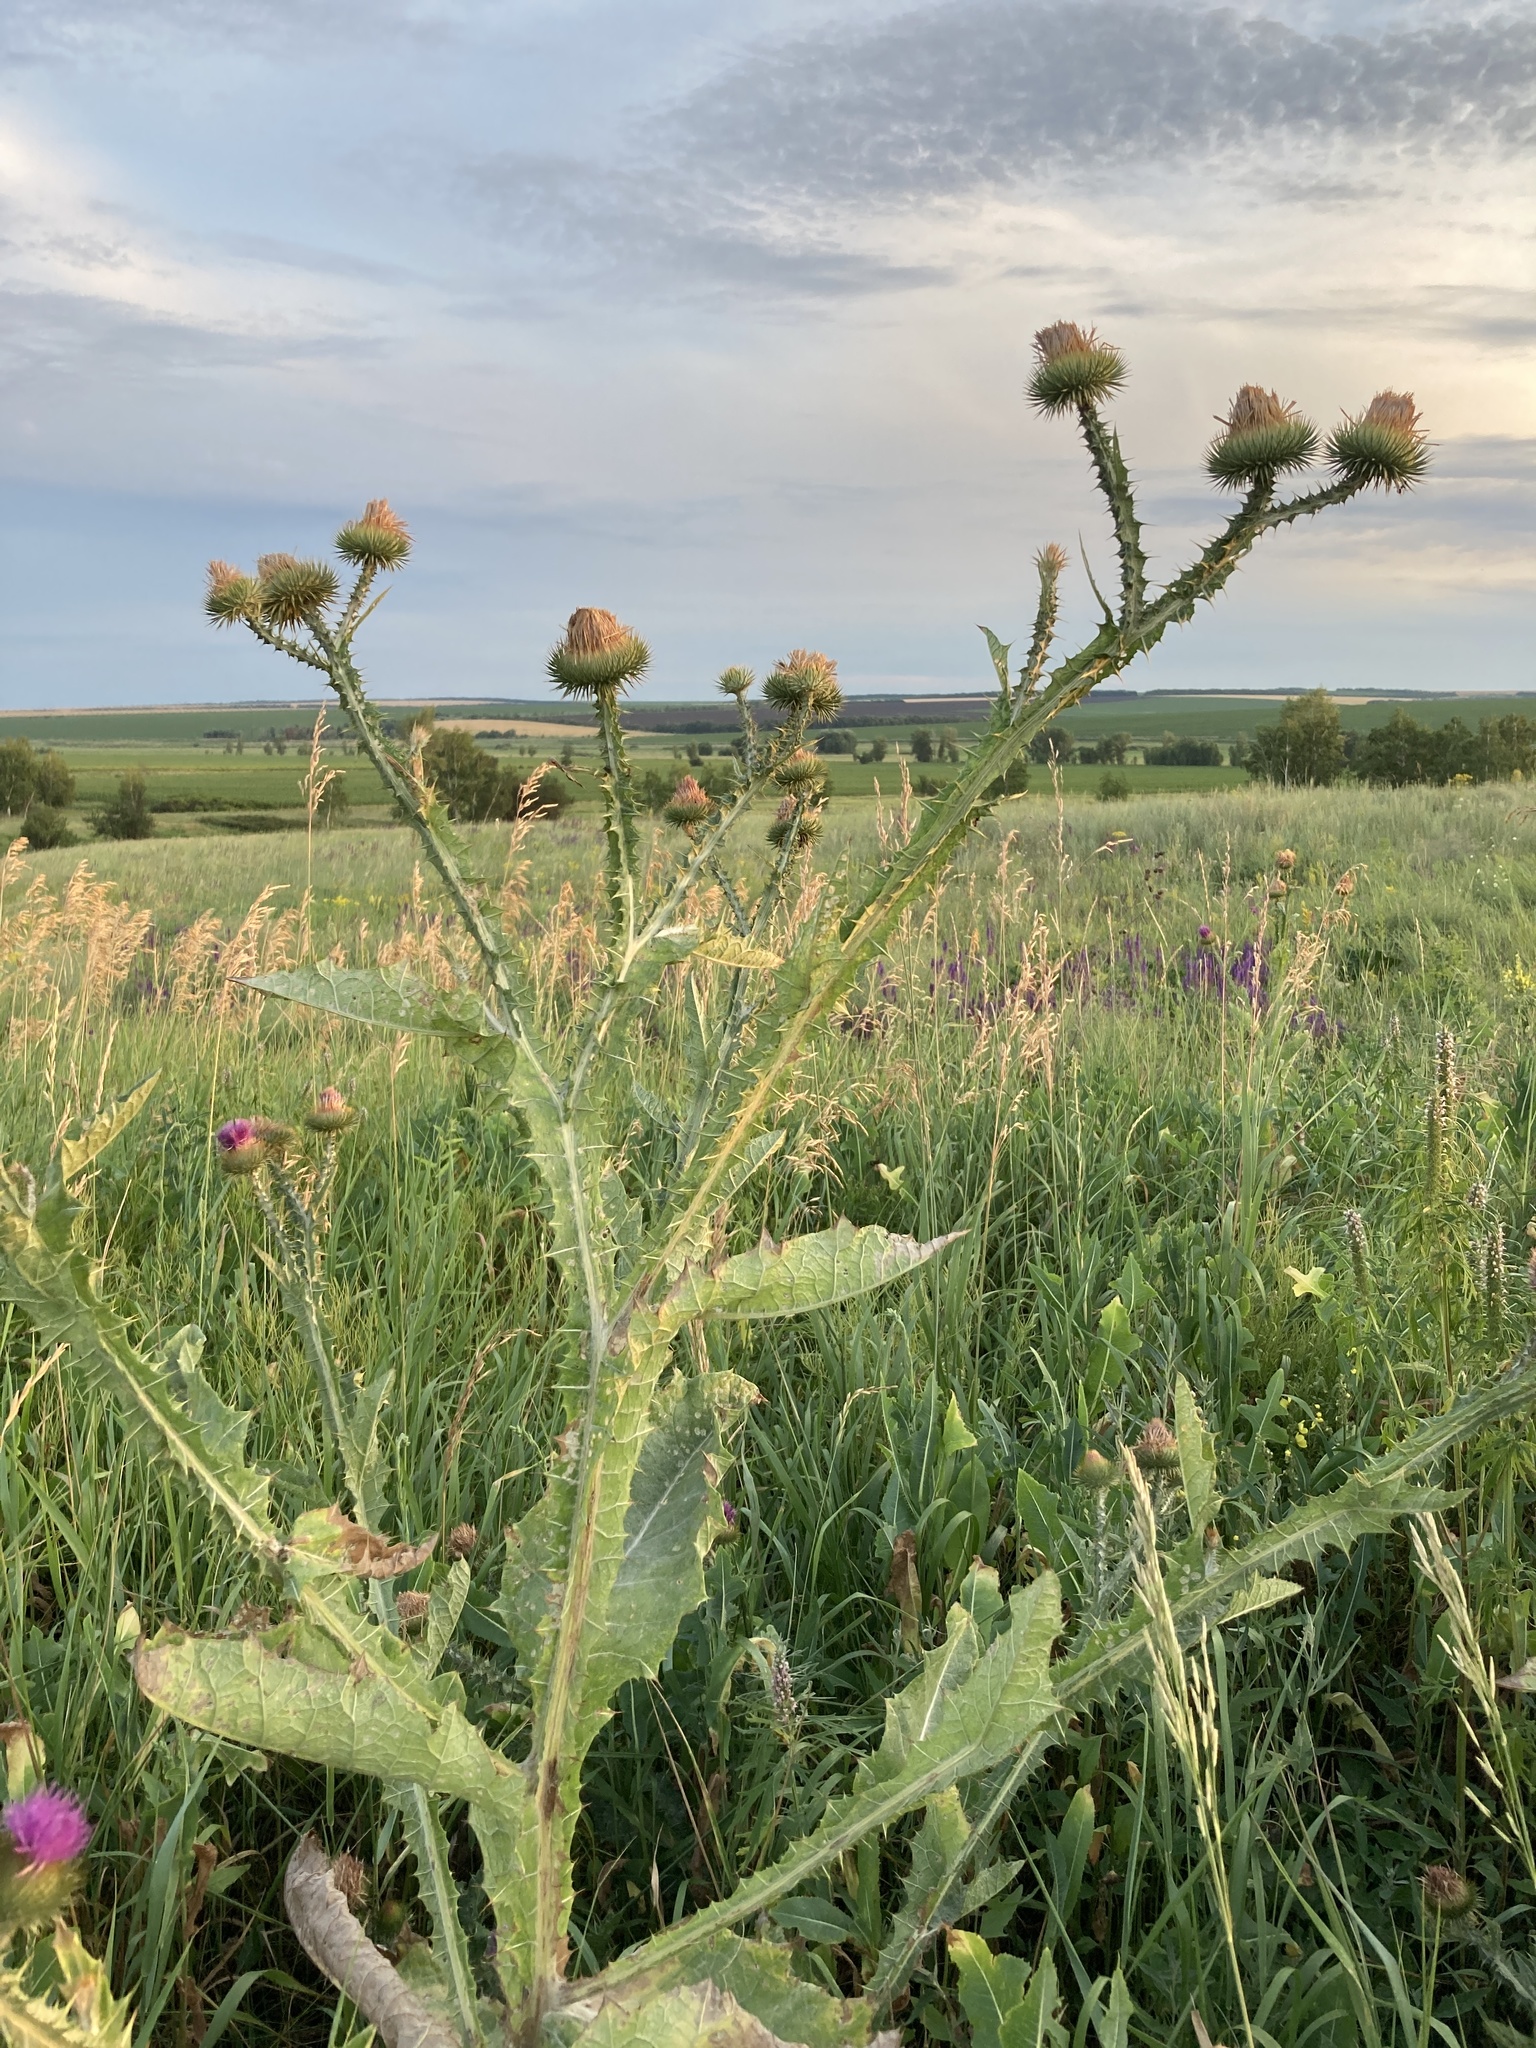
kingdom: Plantae
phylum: Tracheophyta
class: Magnoliopsida
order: Asterales
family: Asteraceae
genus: Onopordum
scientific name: Onopordum acanthium
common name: Scotch thistle
